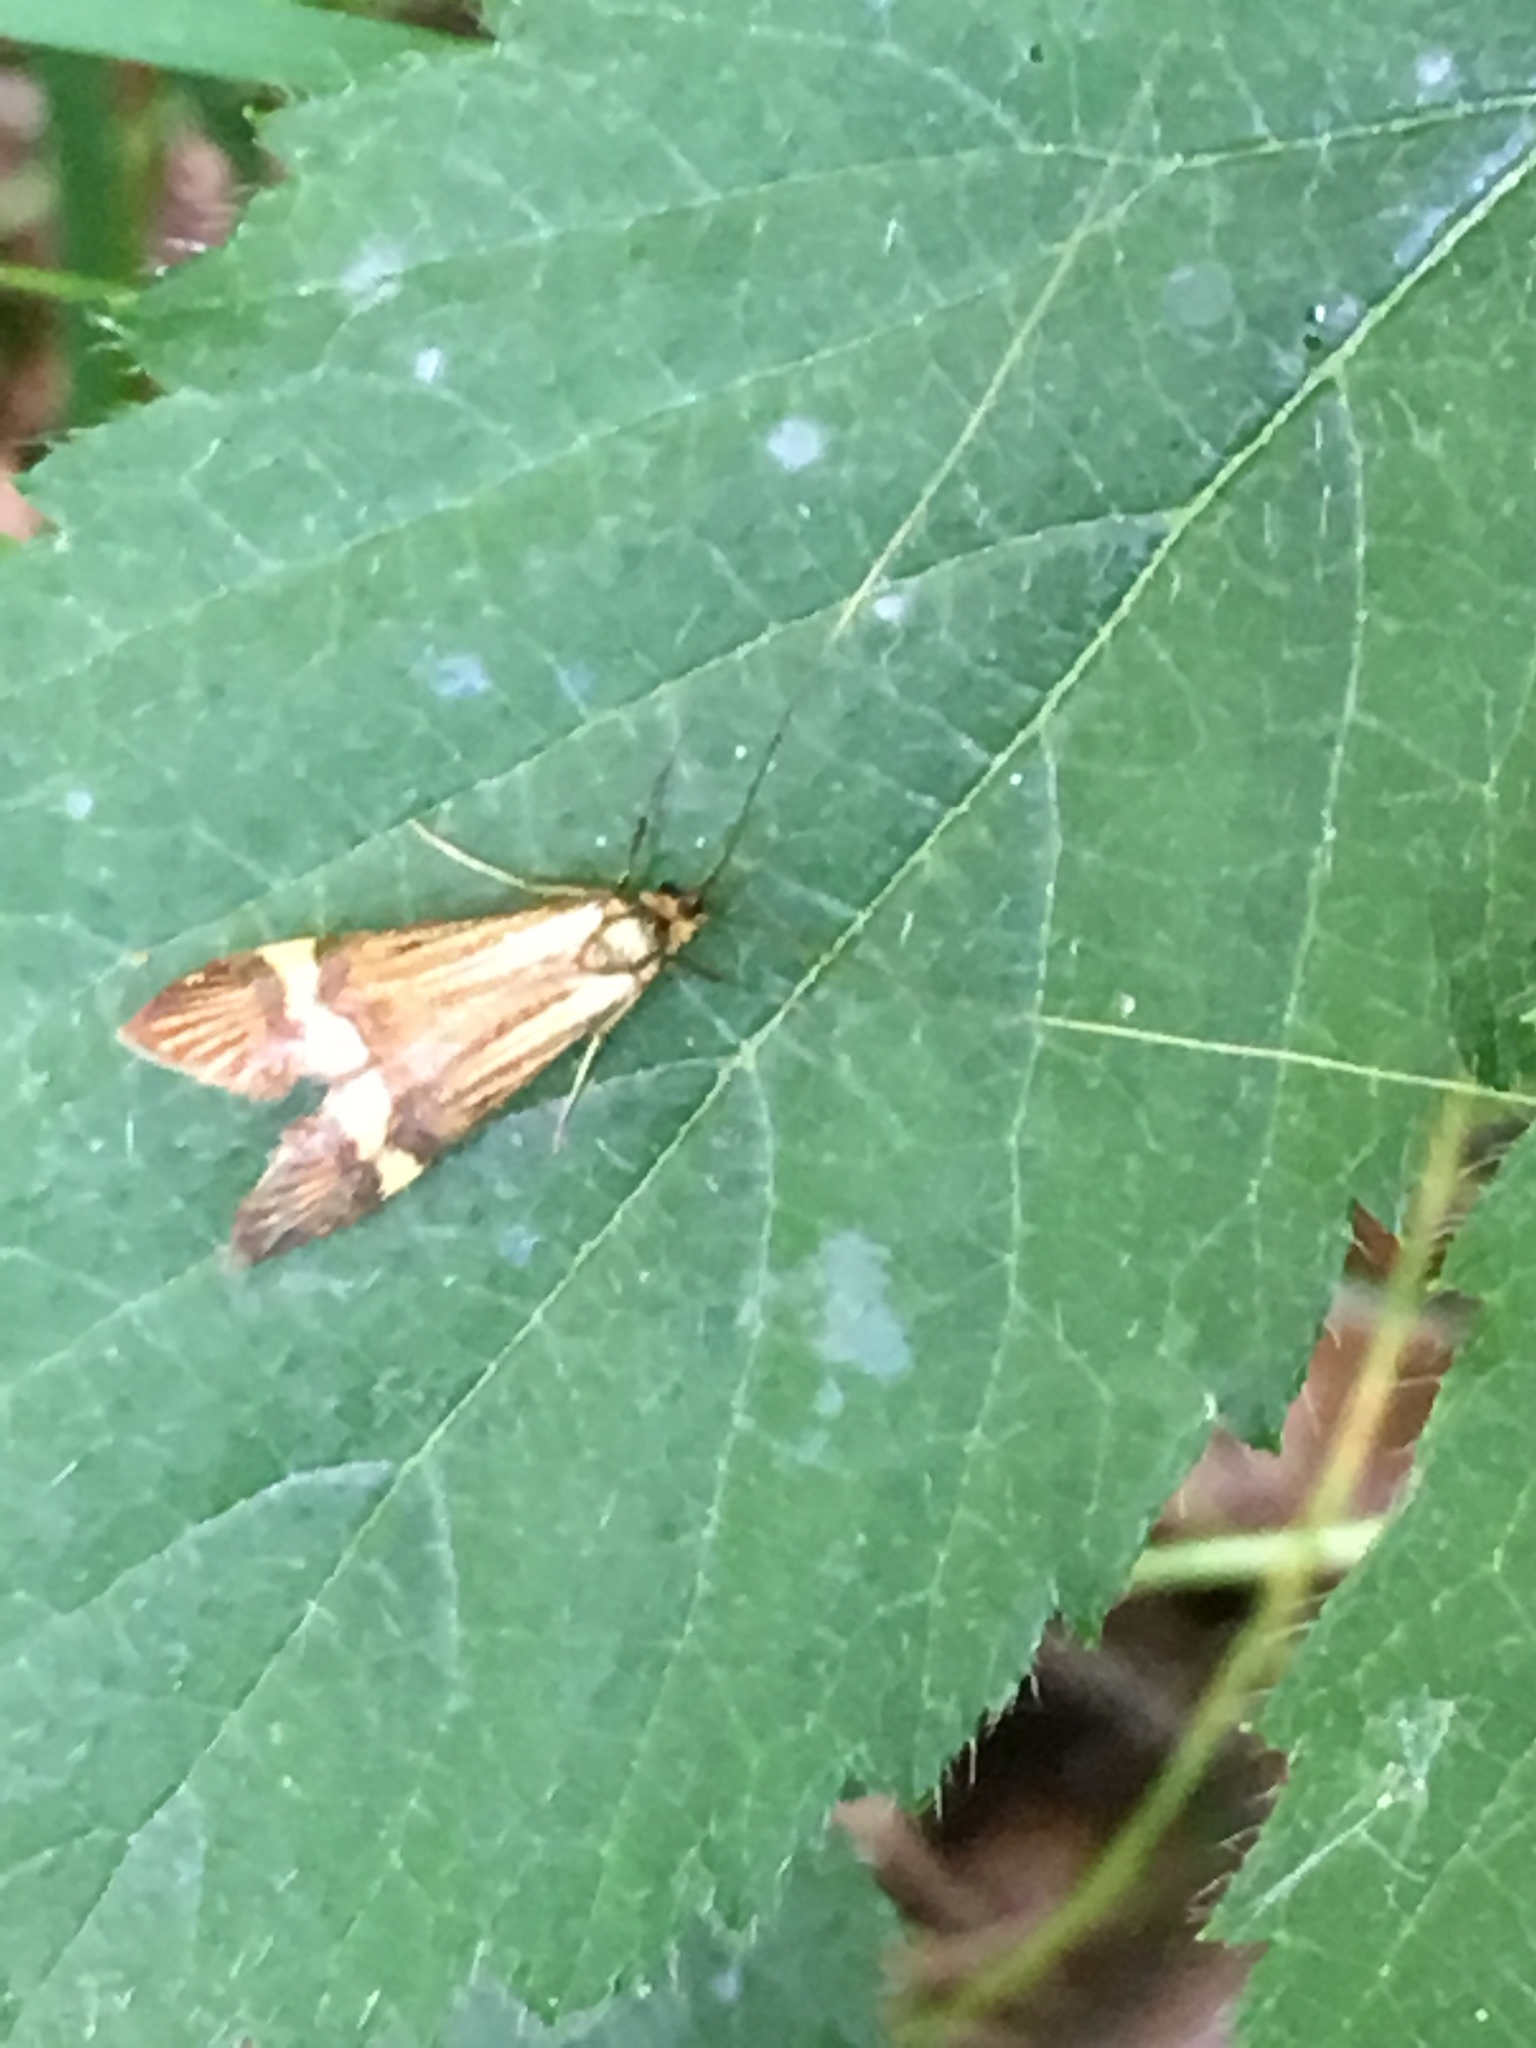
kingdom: Animalia
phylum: Arthropoda
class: Insecta
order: Lepidoptera
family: Adelidae
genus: Nemophora
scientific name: Nemophora degeerella
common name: Yellow-barred long-horn
